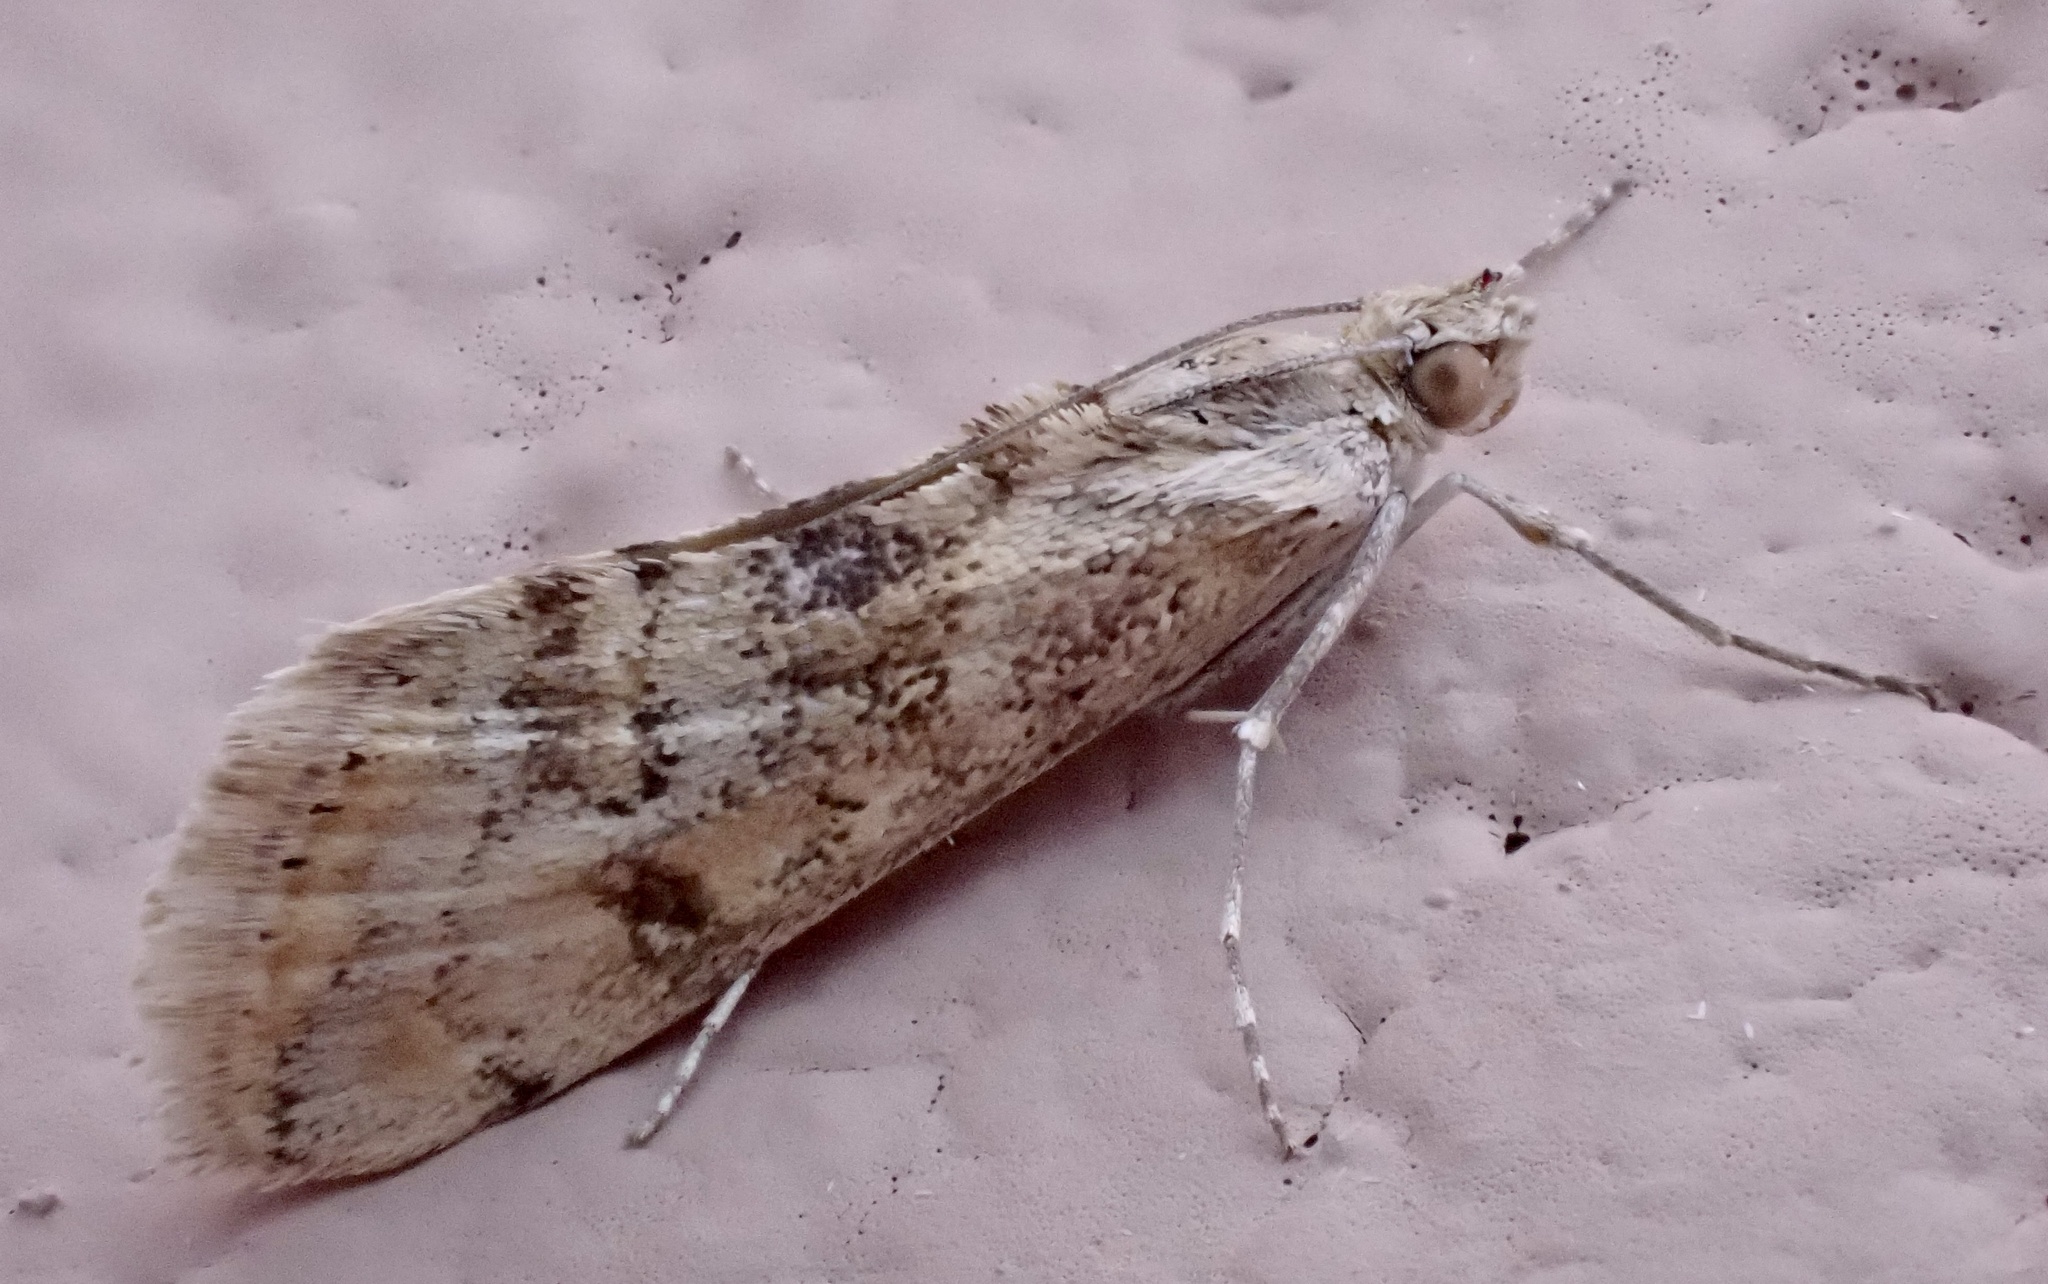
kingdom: Animalia
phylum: Arthropoda
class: Insecta
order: Lepidoptera
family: Crambidae
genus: Cornifrons
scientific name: Cornifrons ulceratalis
